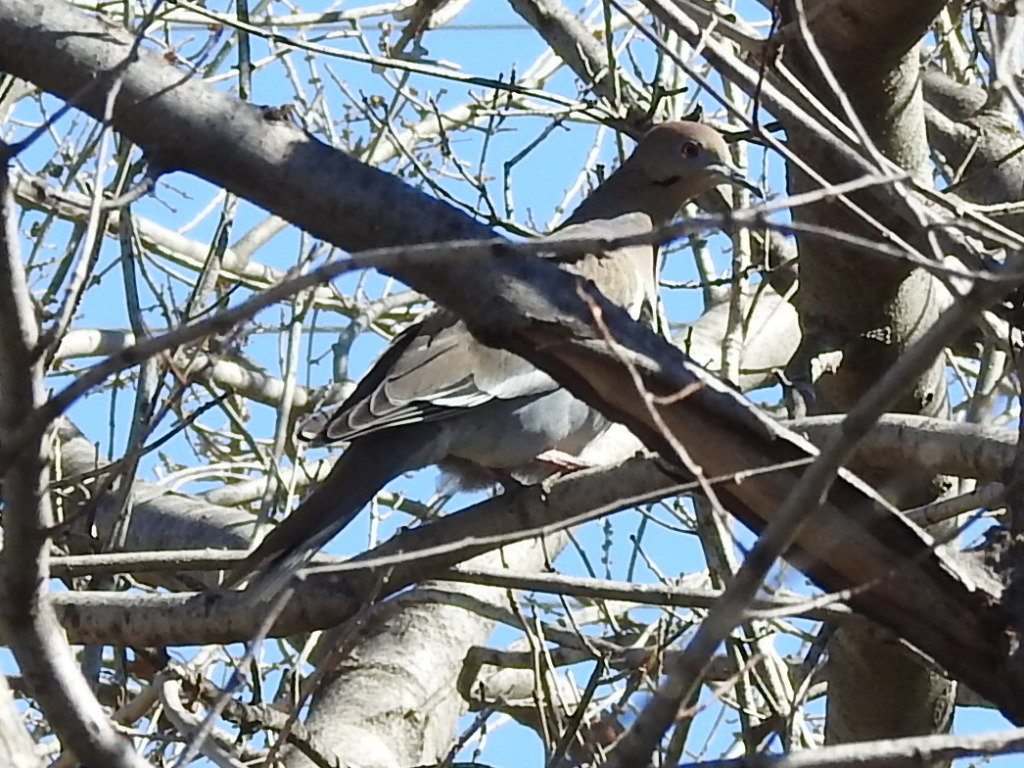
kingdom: Animalia
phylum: Chordata
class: Aves
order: Columbiformes
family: Columbidae
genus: Zenaida
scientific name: Zenaida asiatica
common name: White-winged dove
